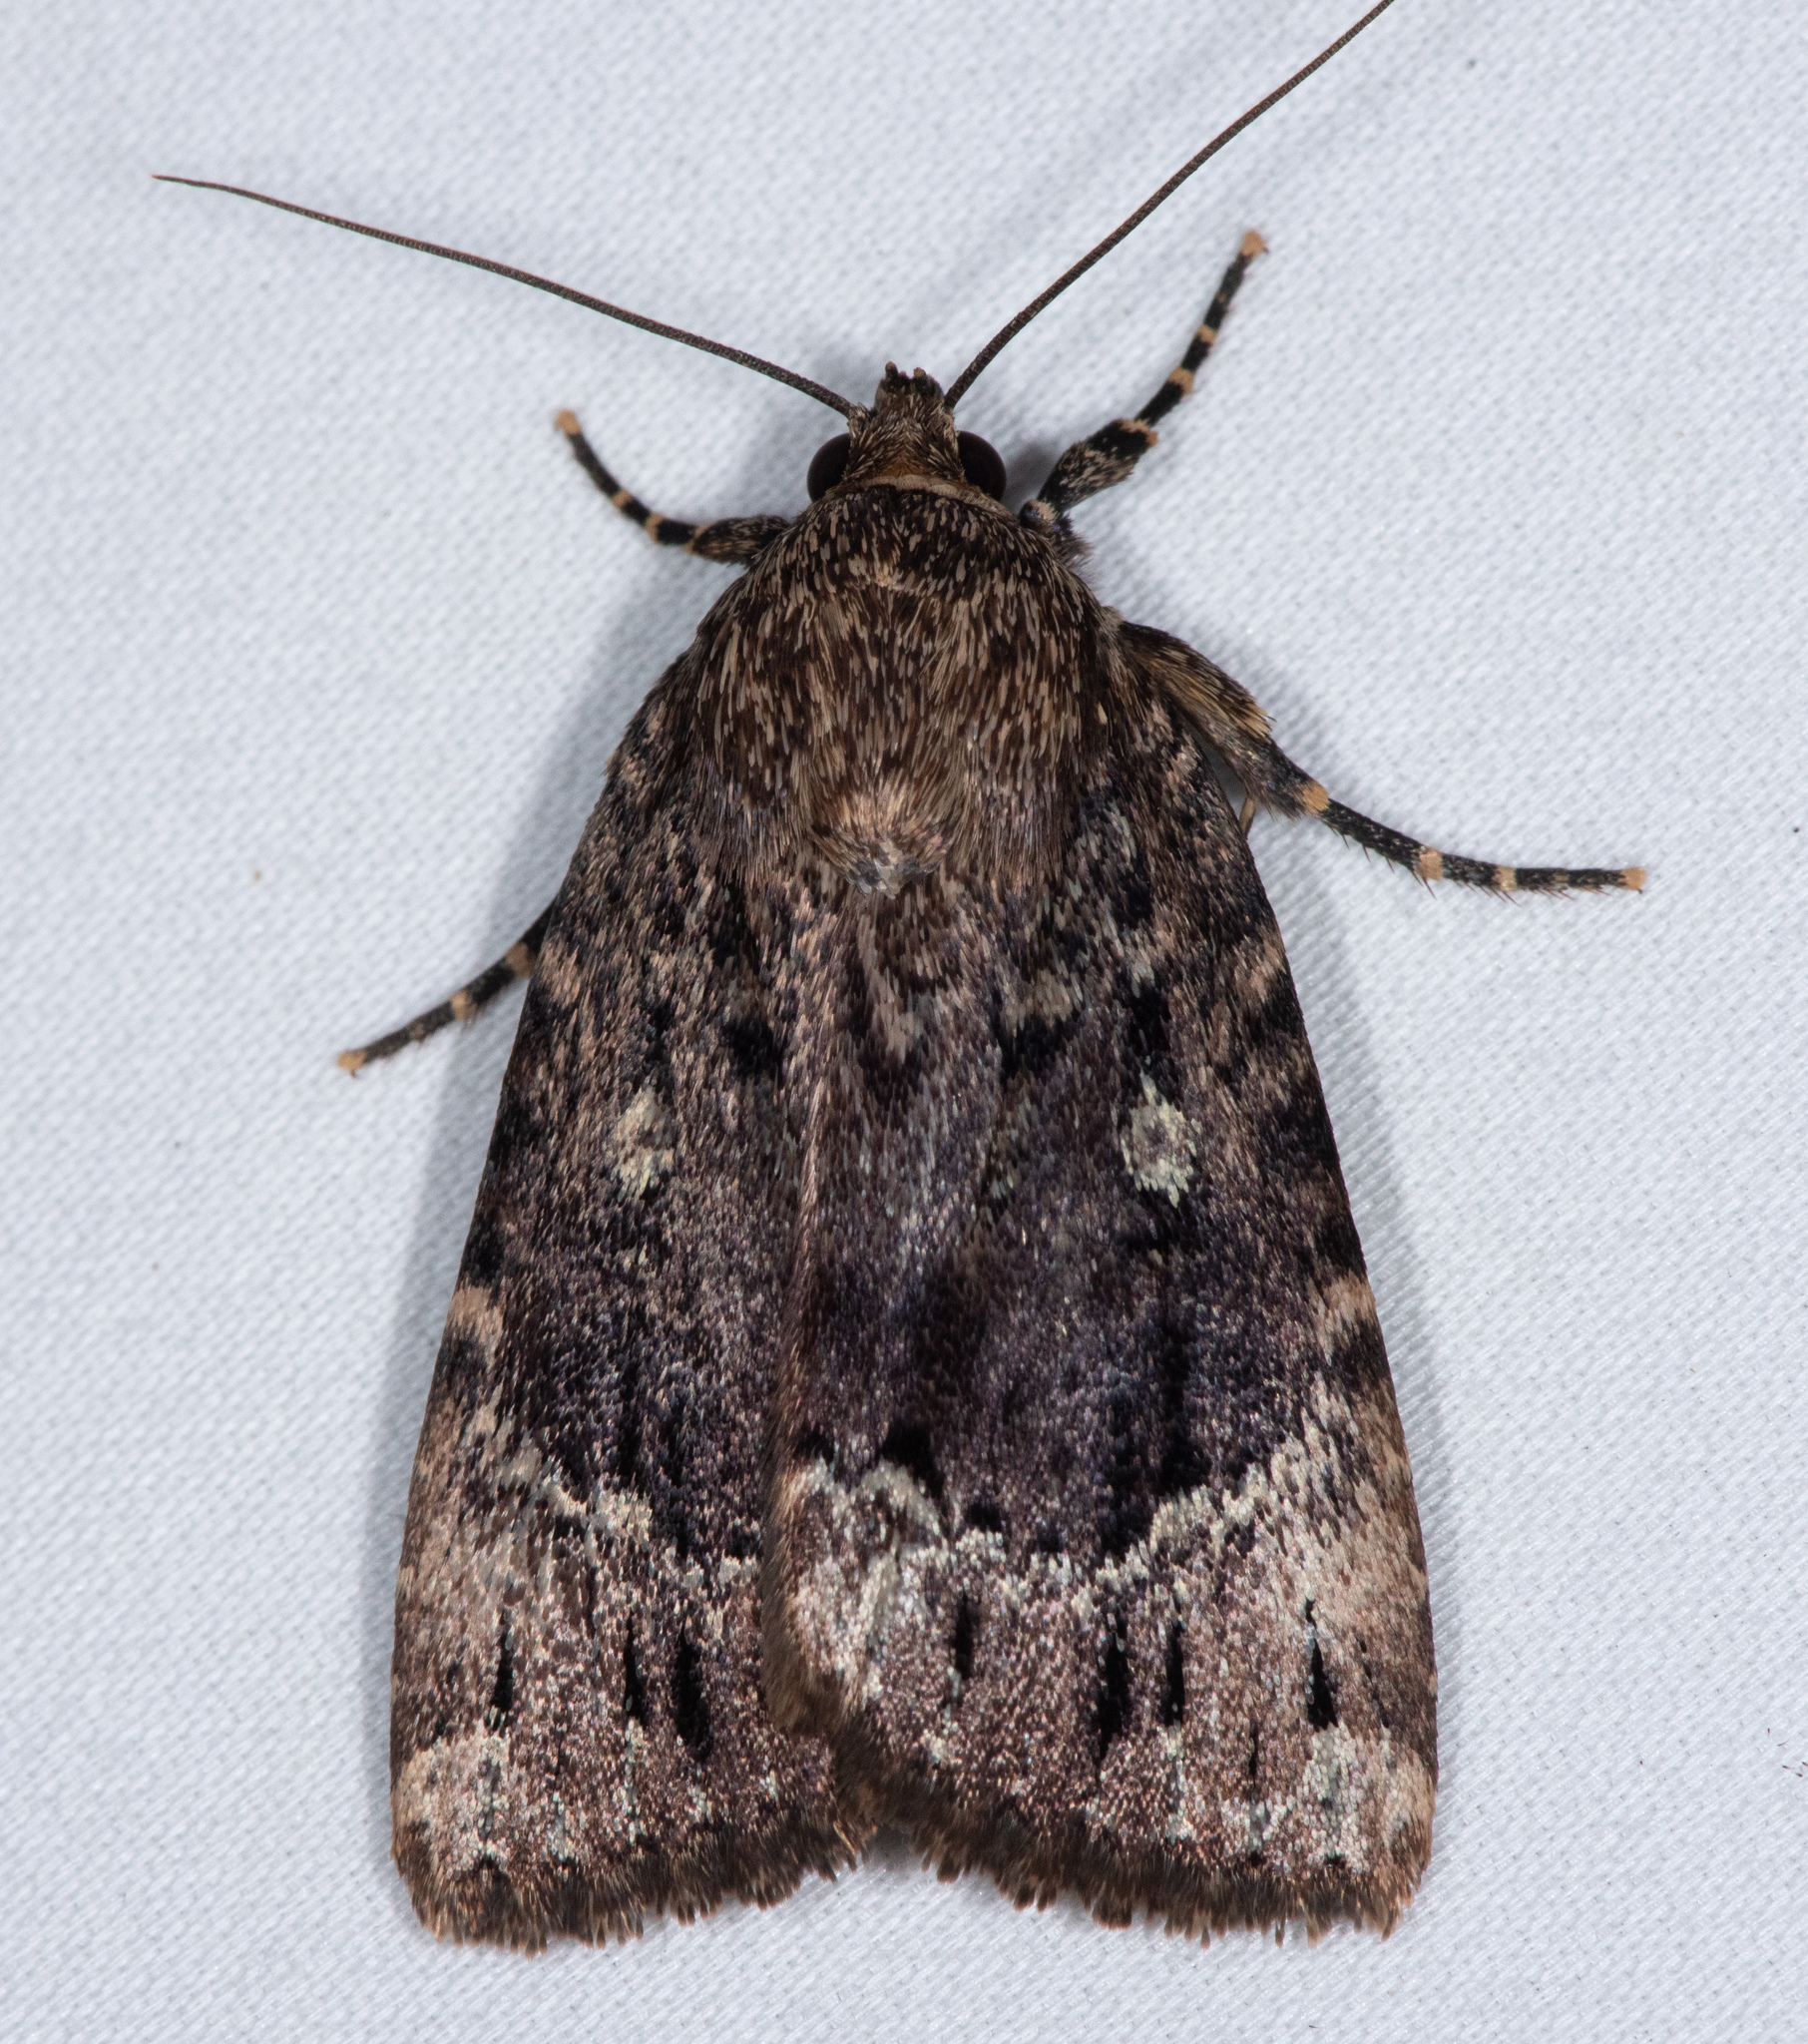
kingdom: Animalia
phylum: Arthropoda
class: Insecta
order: Lepidoptera
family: Noctuidae
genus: Amphipyra
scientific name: Amphipyra pyramidoides
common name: American copper underwing
